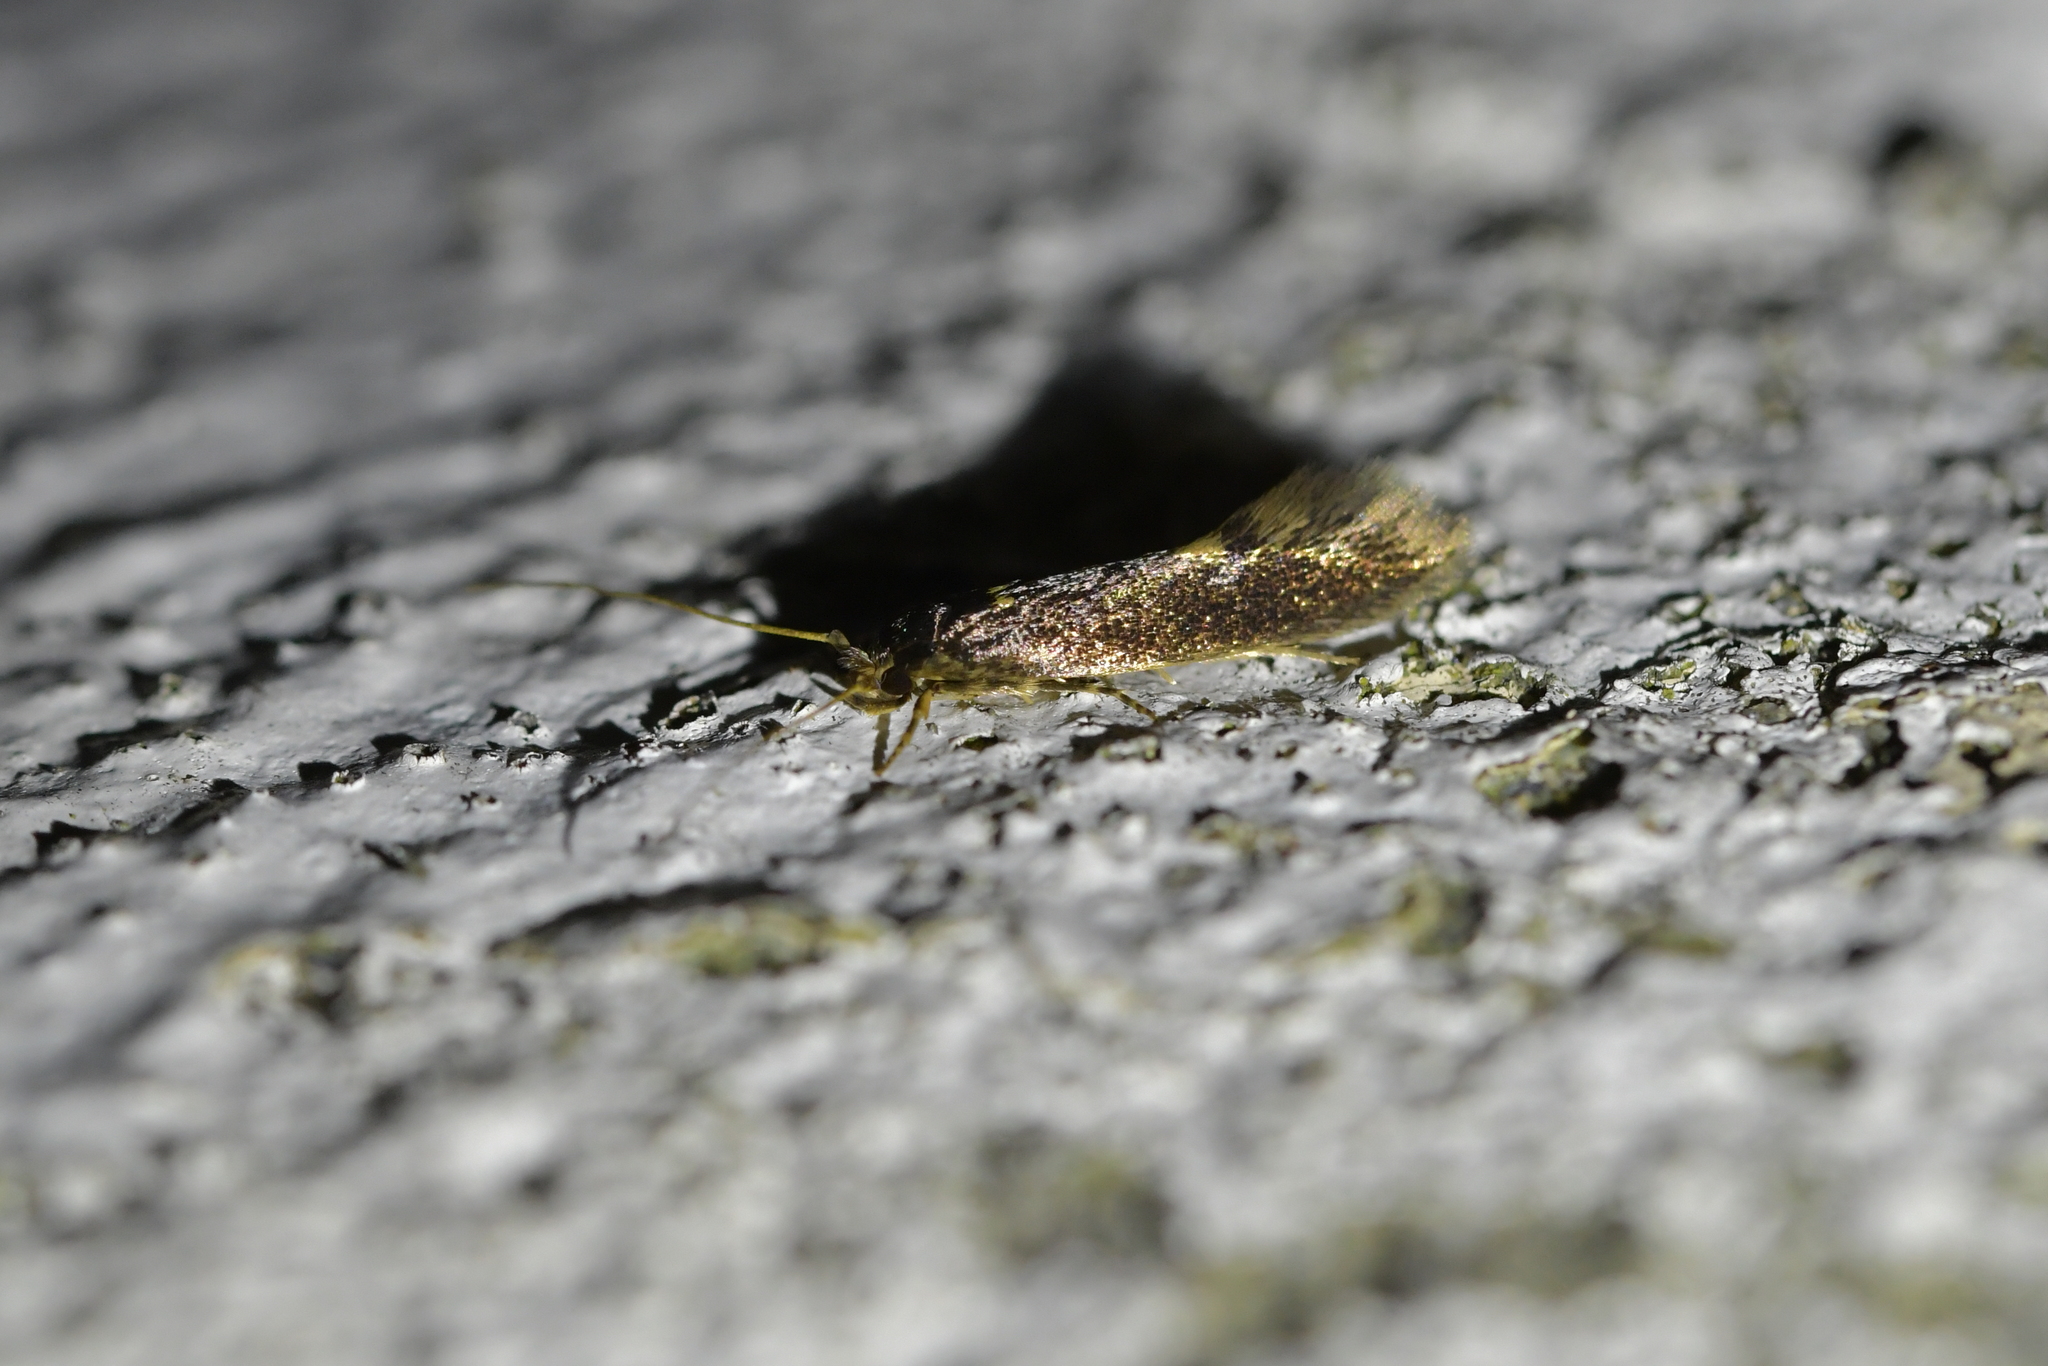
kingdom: Animalia
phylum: Arthropoda
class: Insecta
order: Lepidoptera
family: Tineidae
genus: Opogona
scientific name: Opogona omoscopa
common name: Moth
